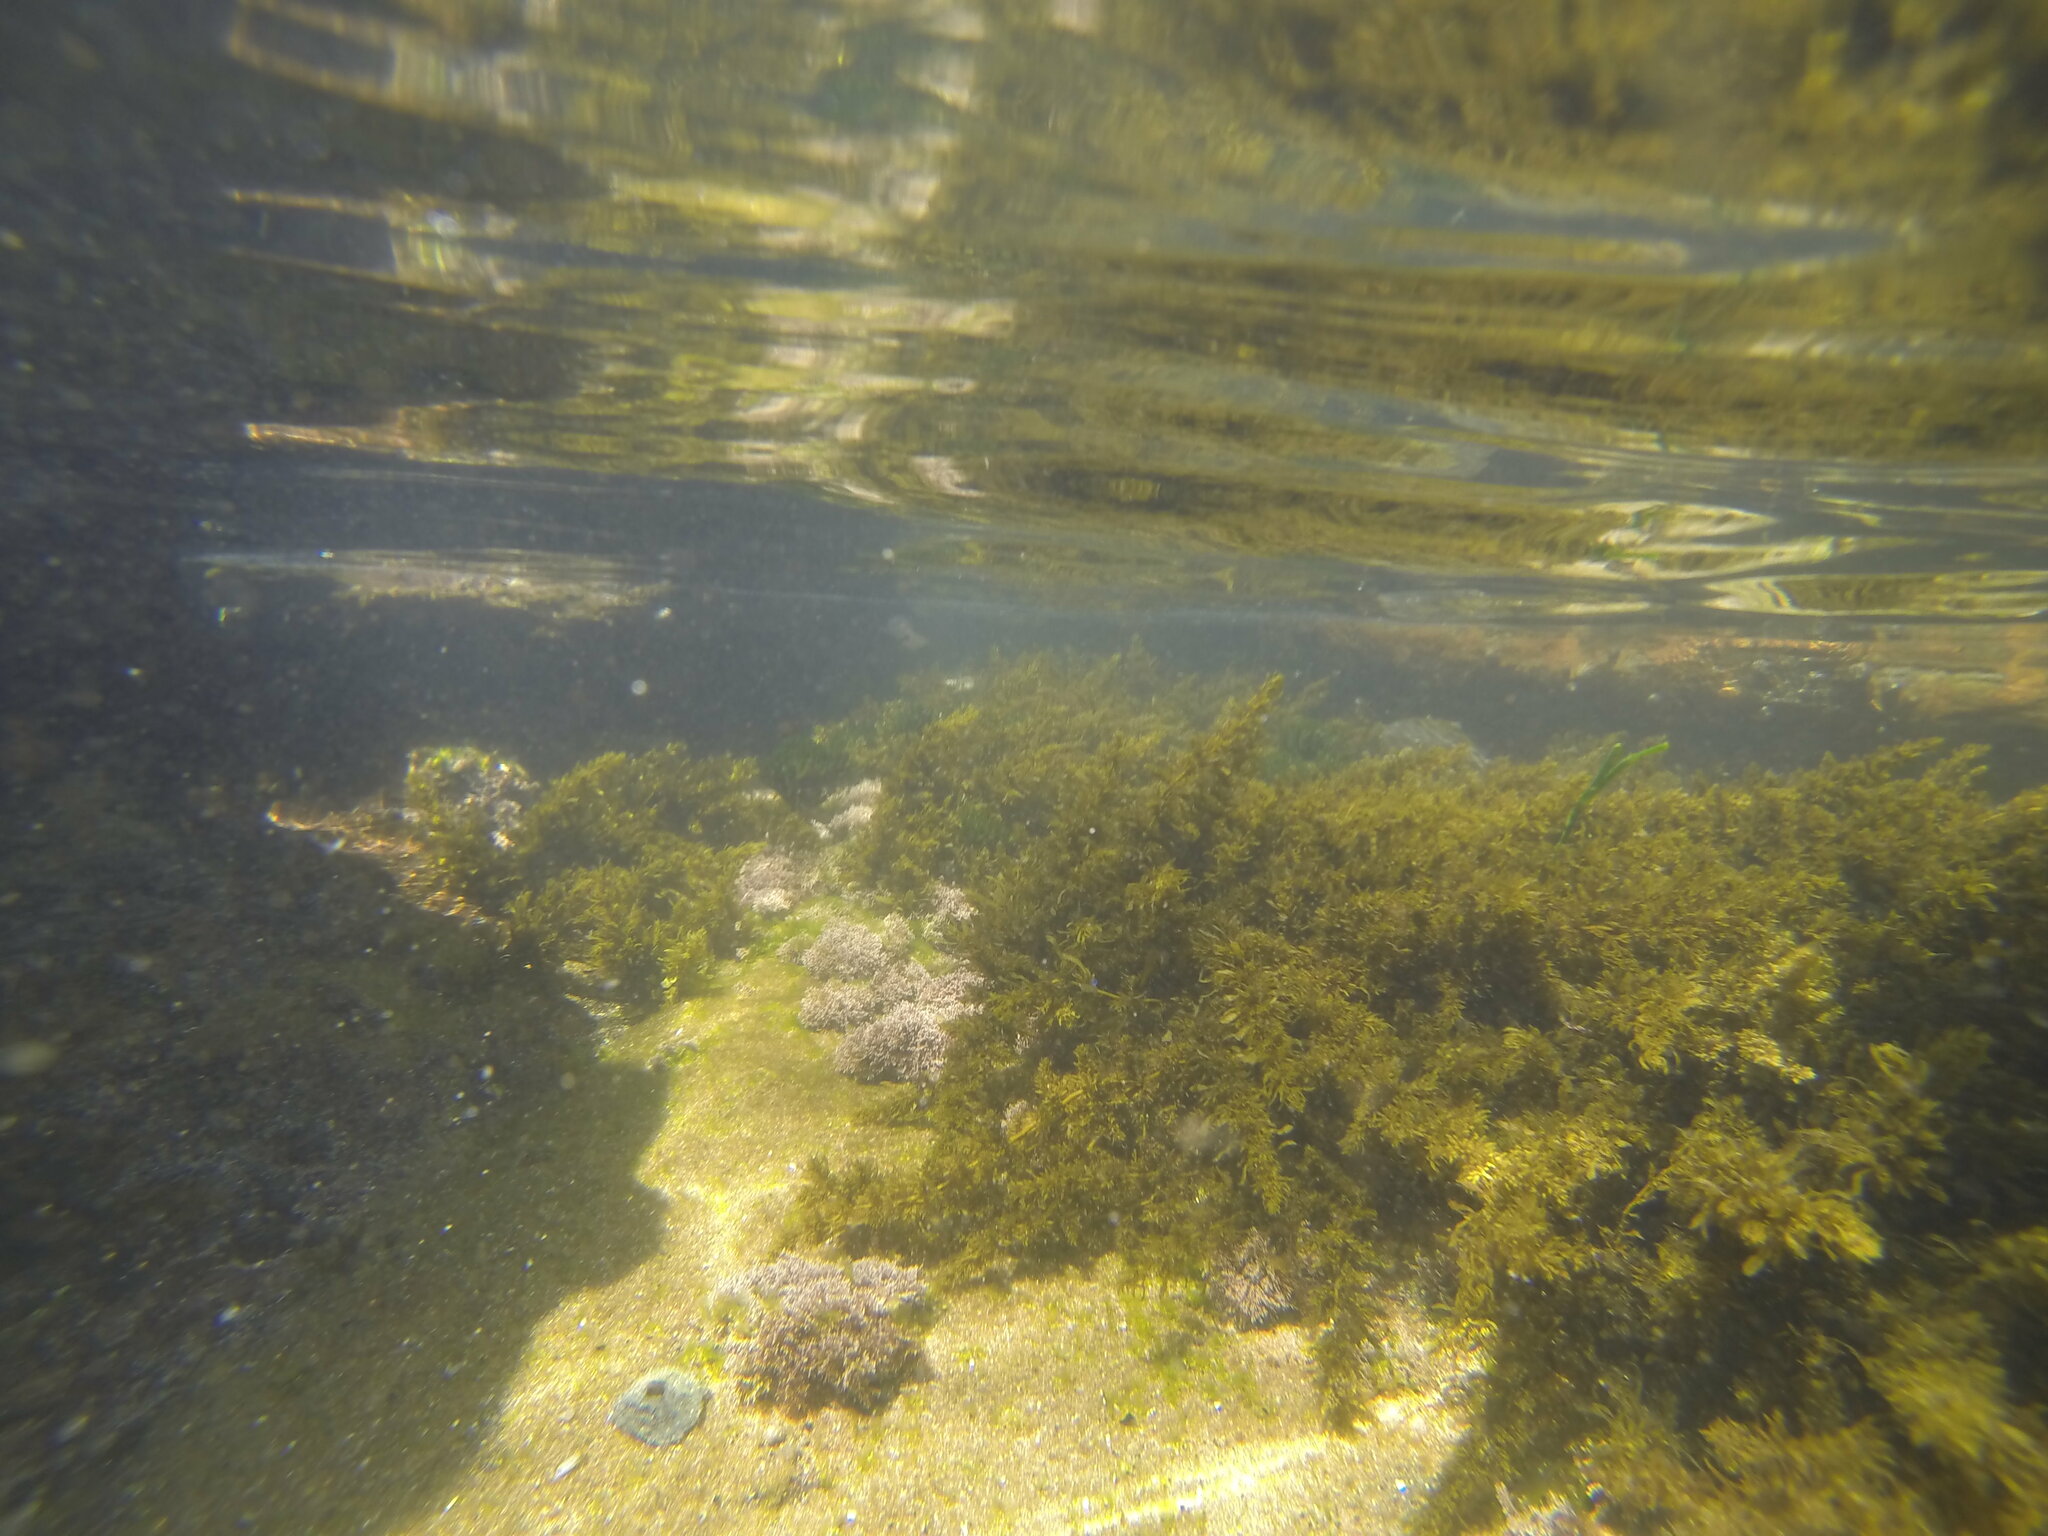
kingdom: Plantae
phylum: Rhodophyta
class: Florideophyceae
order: Corallinales
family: Corallinaceae
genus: Corallina
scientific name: Corallina officinalis
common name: Coral weed
